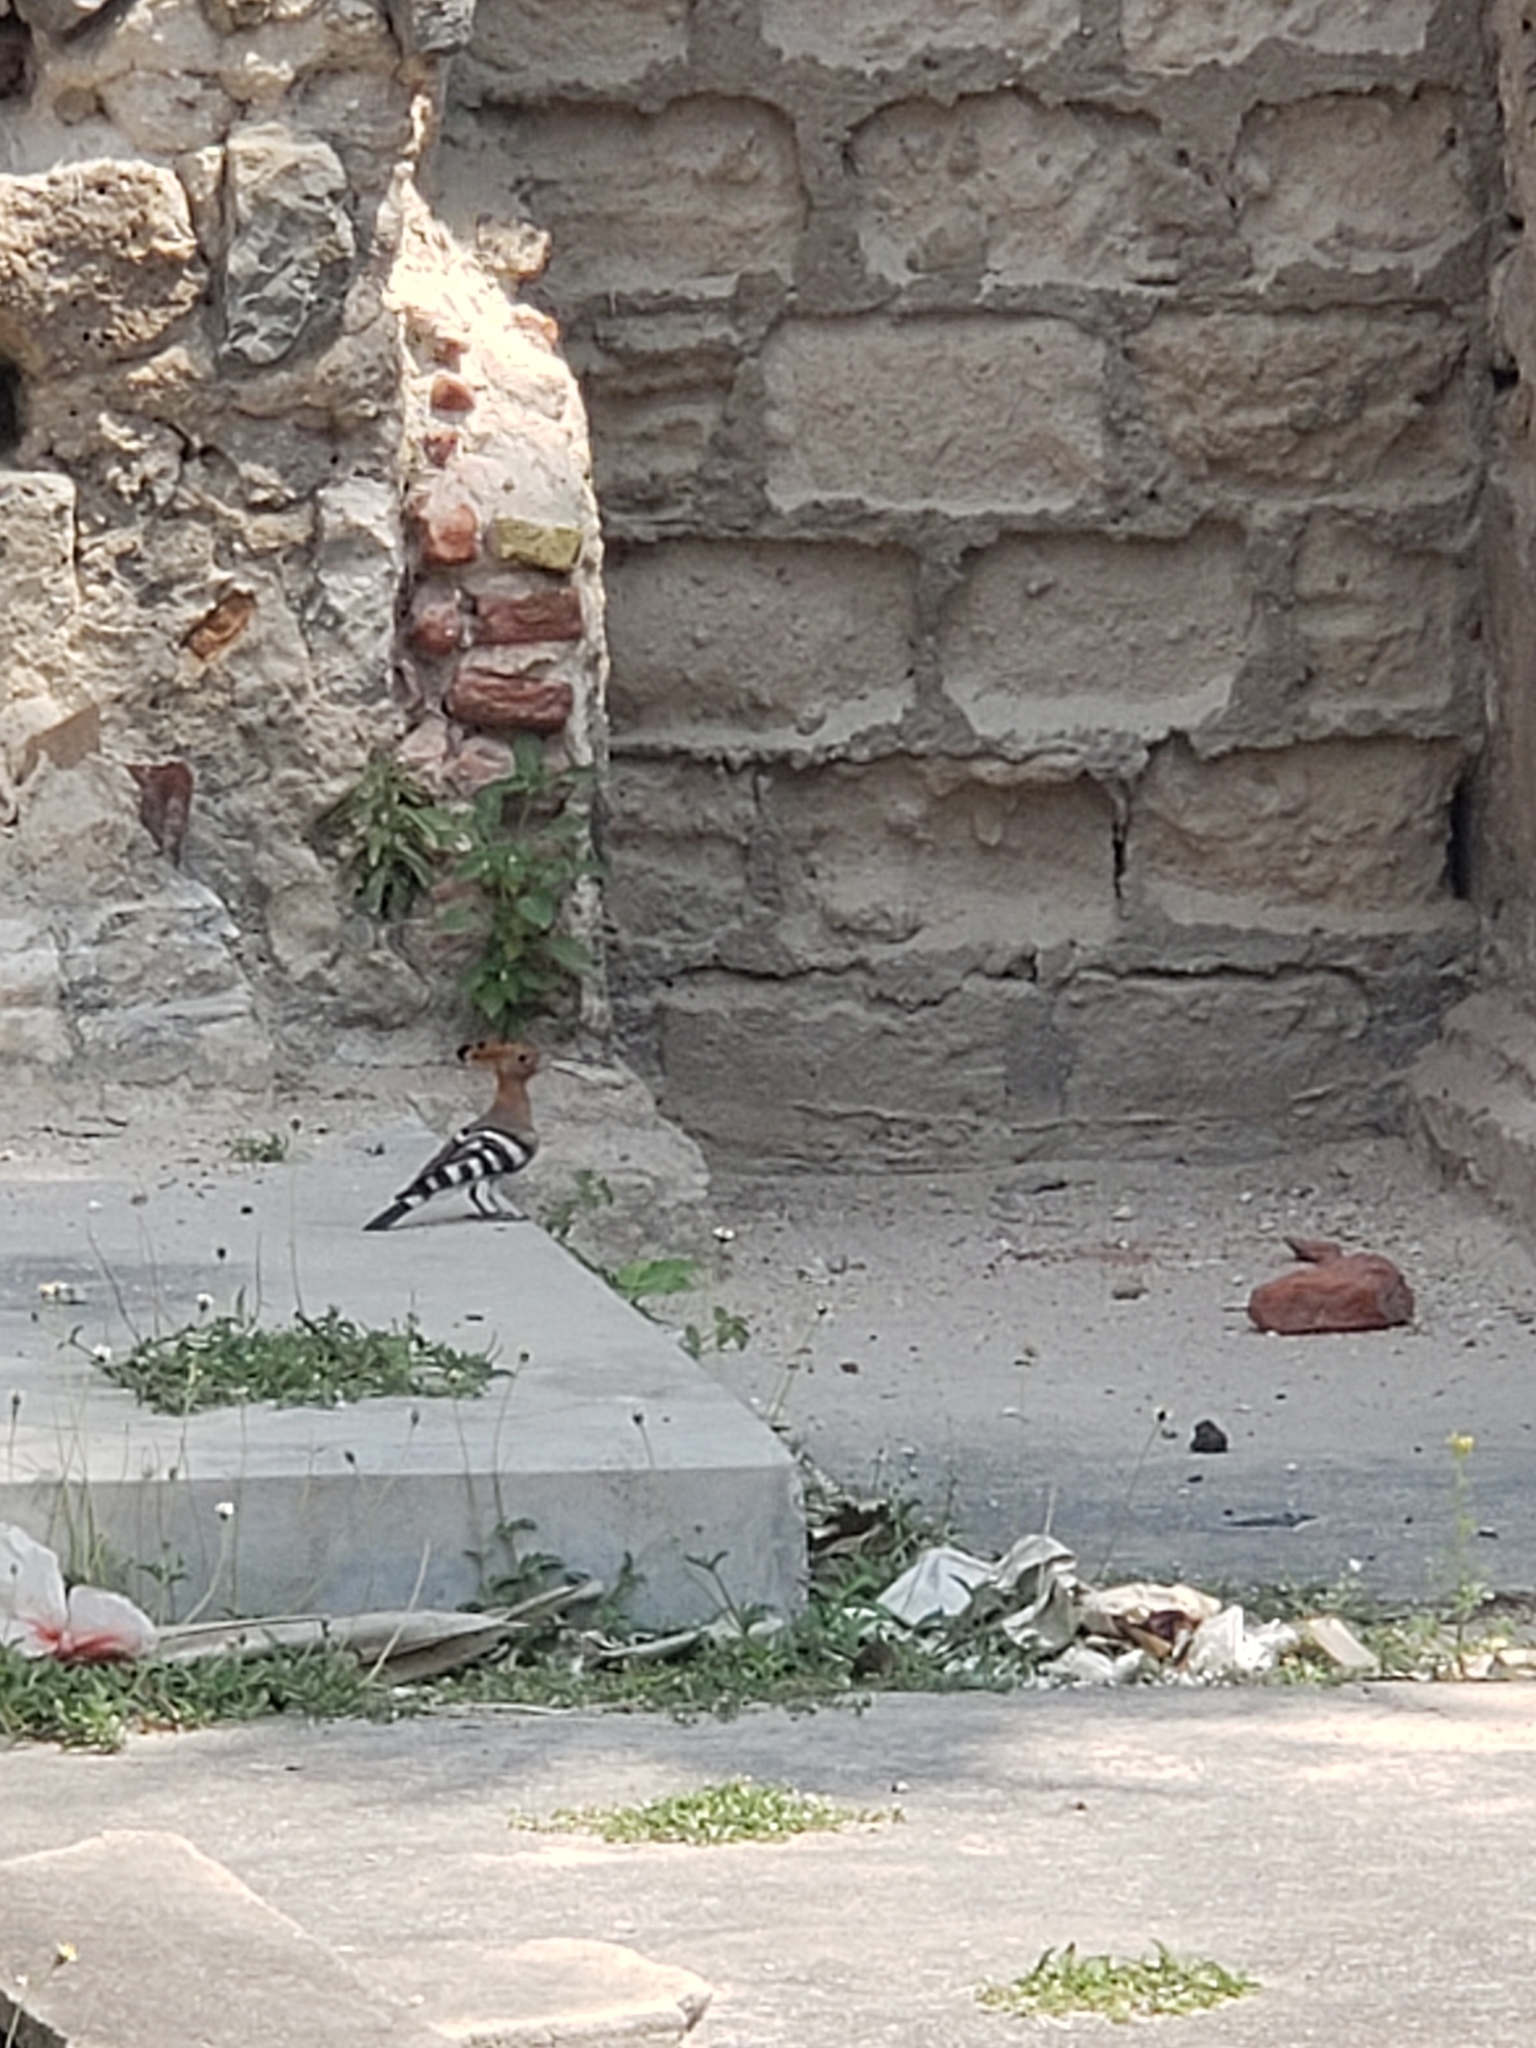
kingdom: Animalia
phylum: Chordata
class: Aves
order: Bucerotiformes
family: Upupidae
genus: Upupa
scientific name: Upupa epops
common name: Eurasian hoopoe
